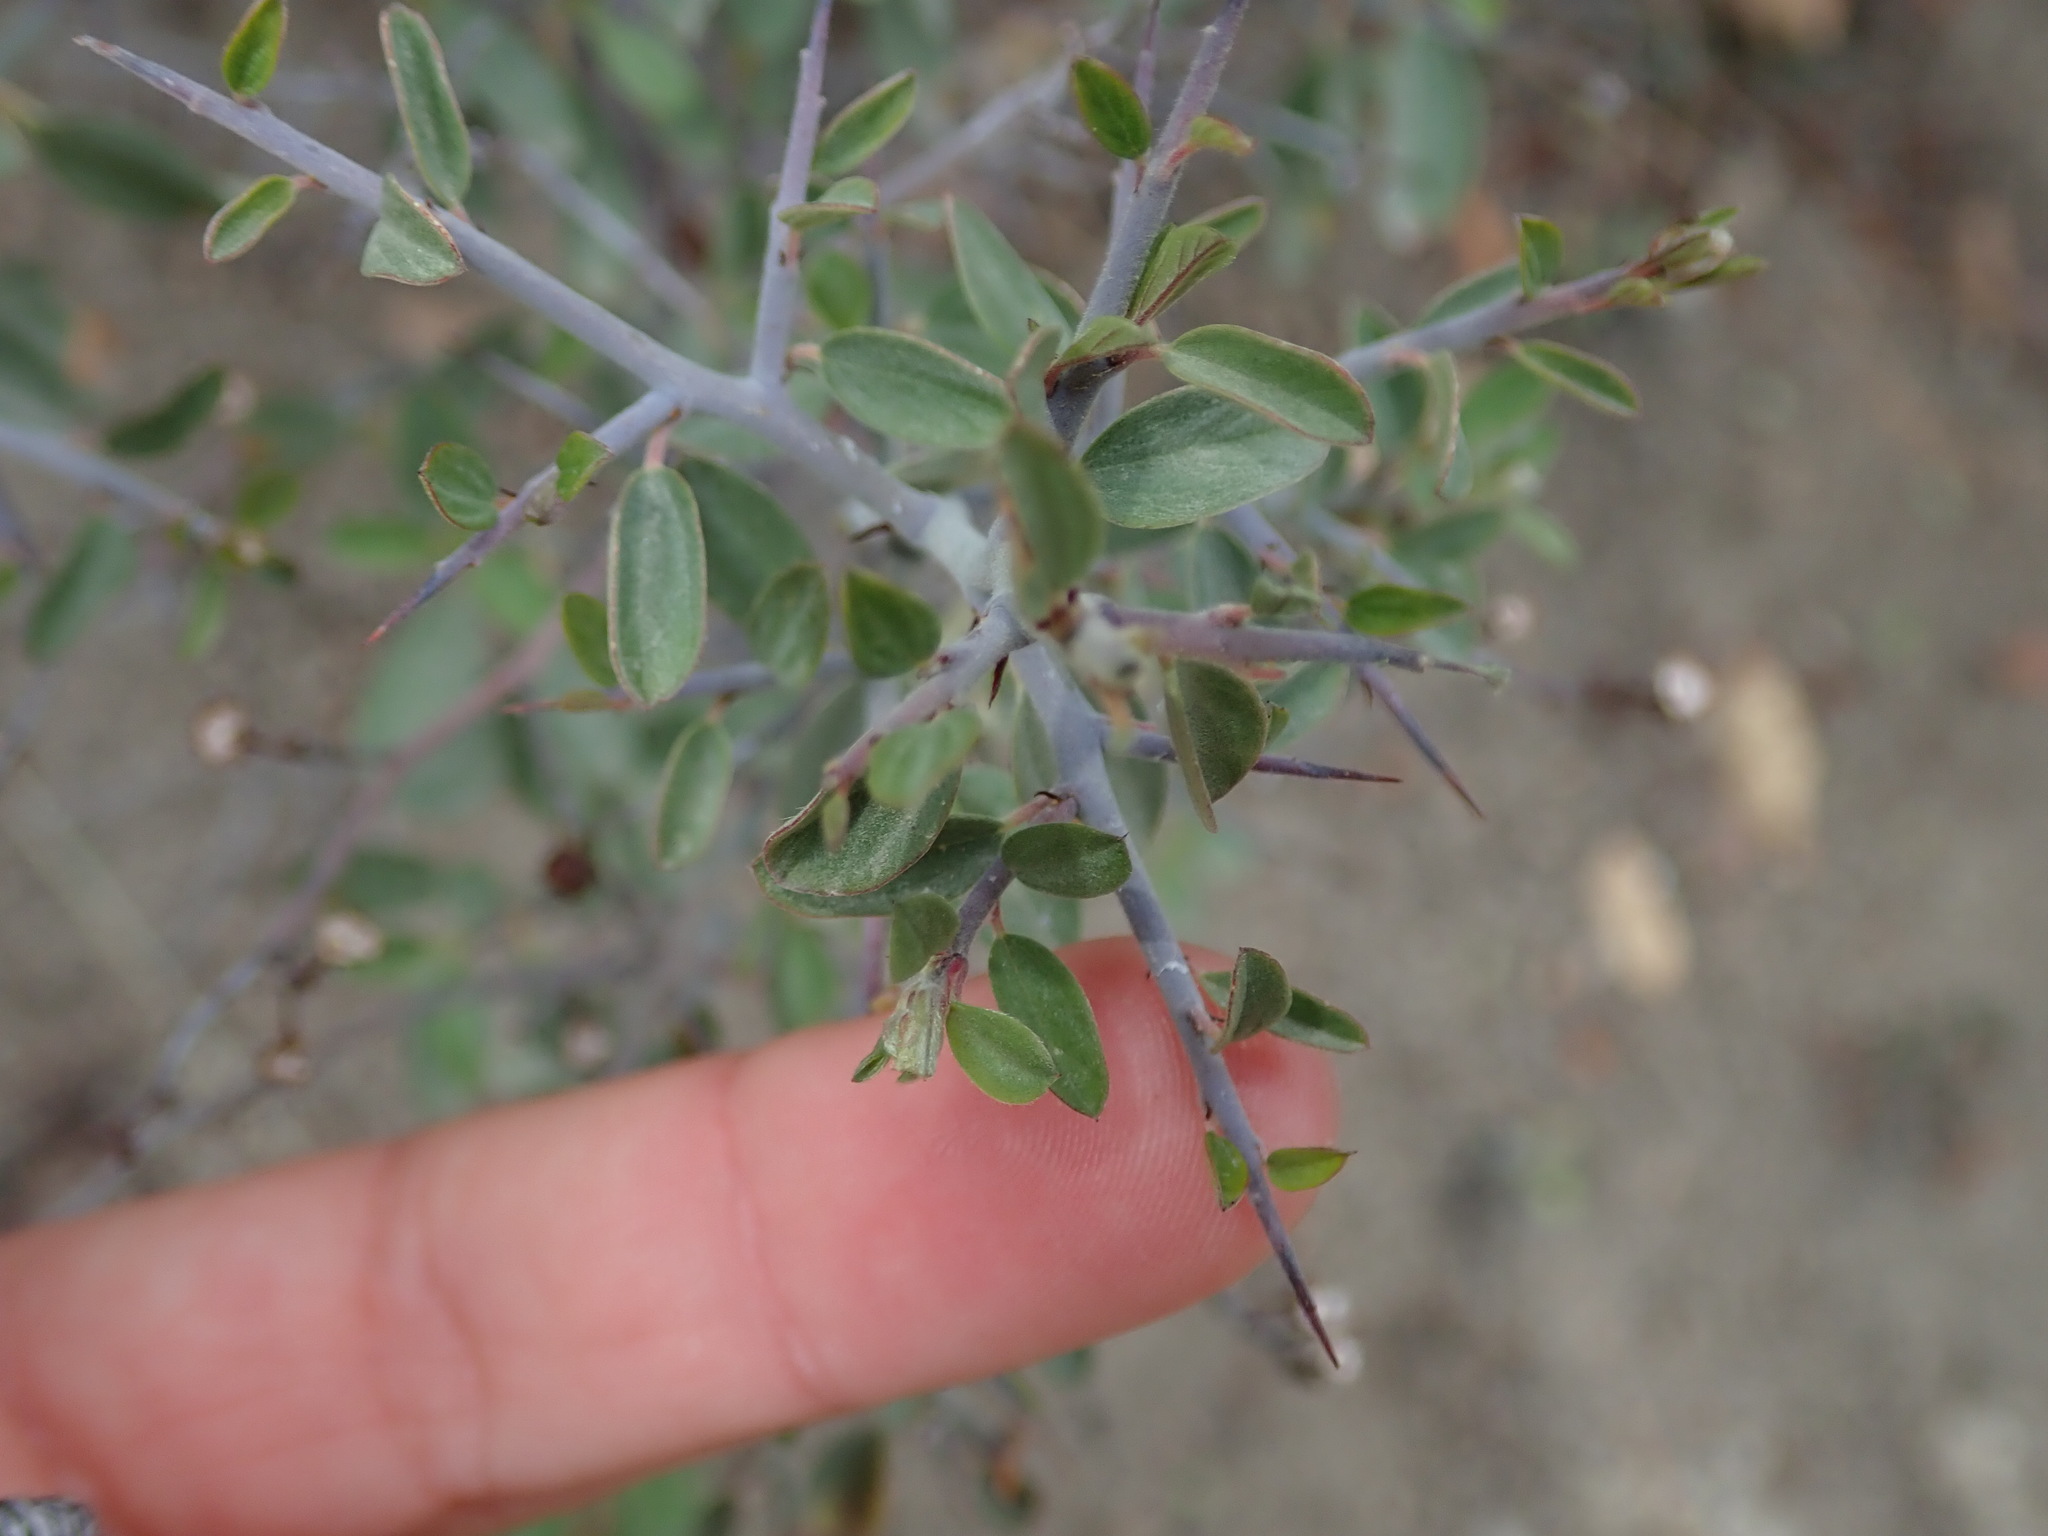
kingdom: Plantae
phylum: Tracheophyta
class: Magnoliopsida
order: Rosales
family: Rhamnaceae
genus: Ceanothus
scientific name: Ceanothus fendleri
